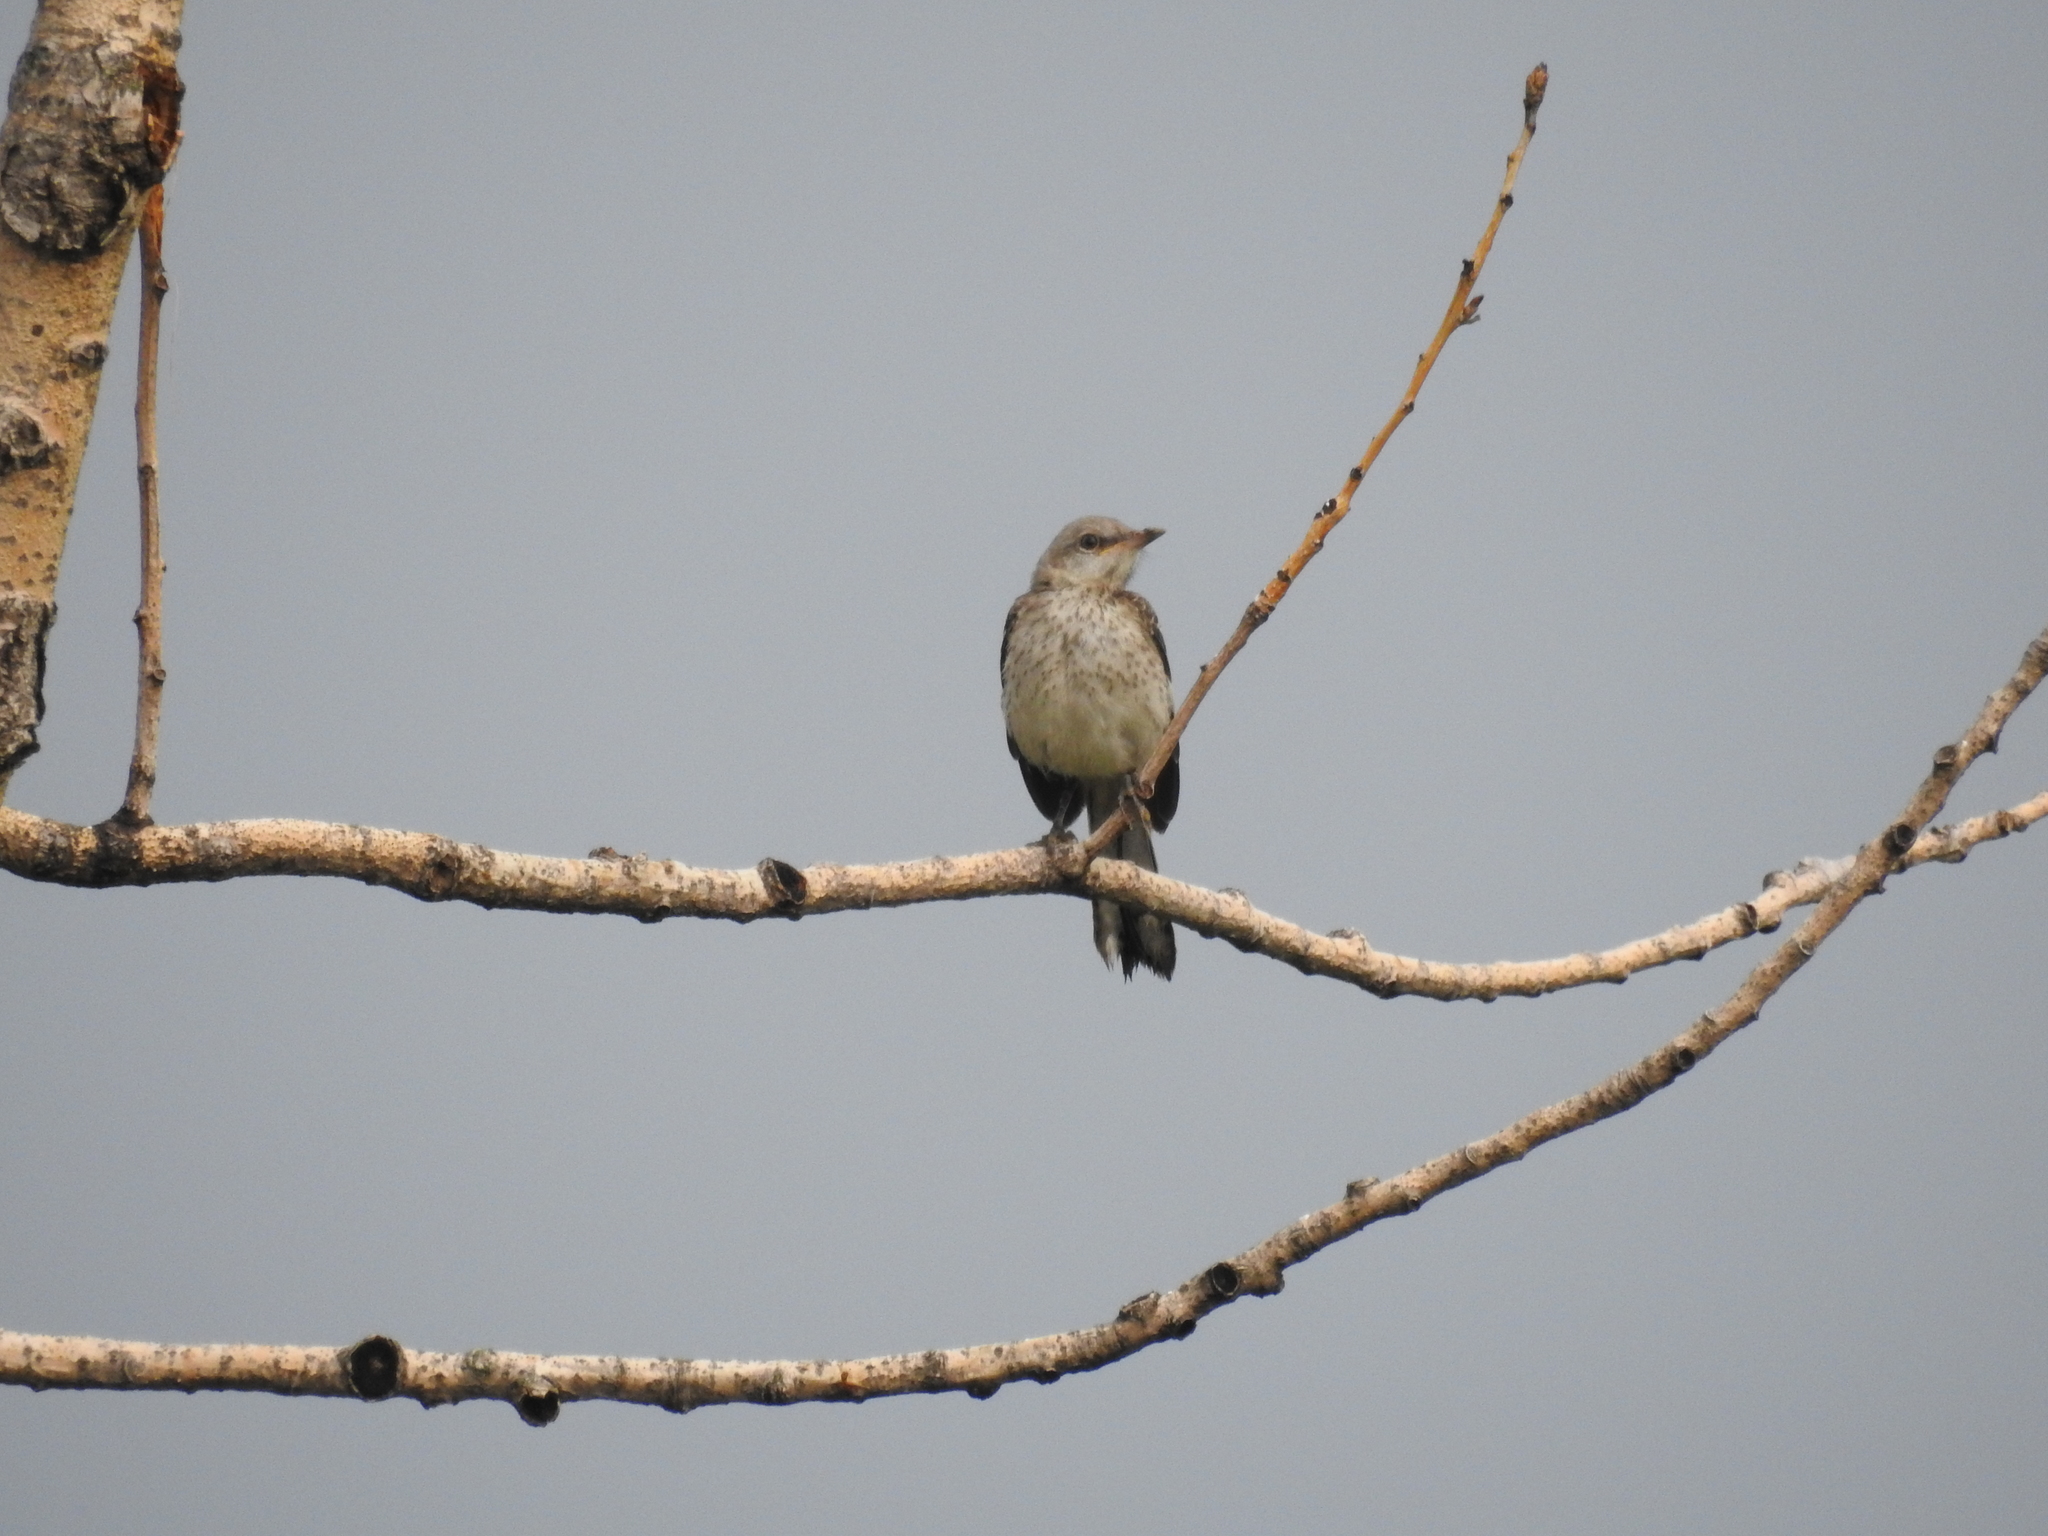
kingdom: Animalia
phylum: Chordata
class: Aves
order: Passeriformes
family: Mimidae
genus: Mimus
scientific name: Mimus polyglottos
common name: Northern mockingbird
